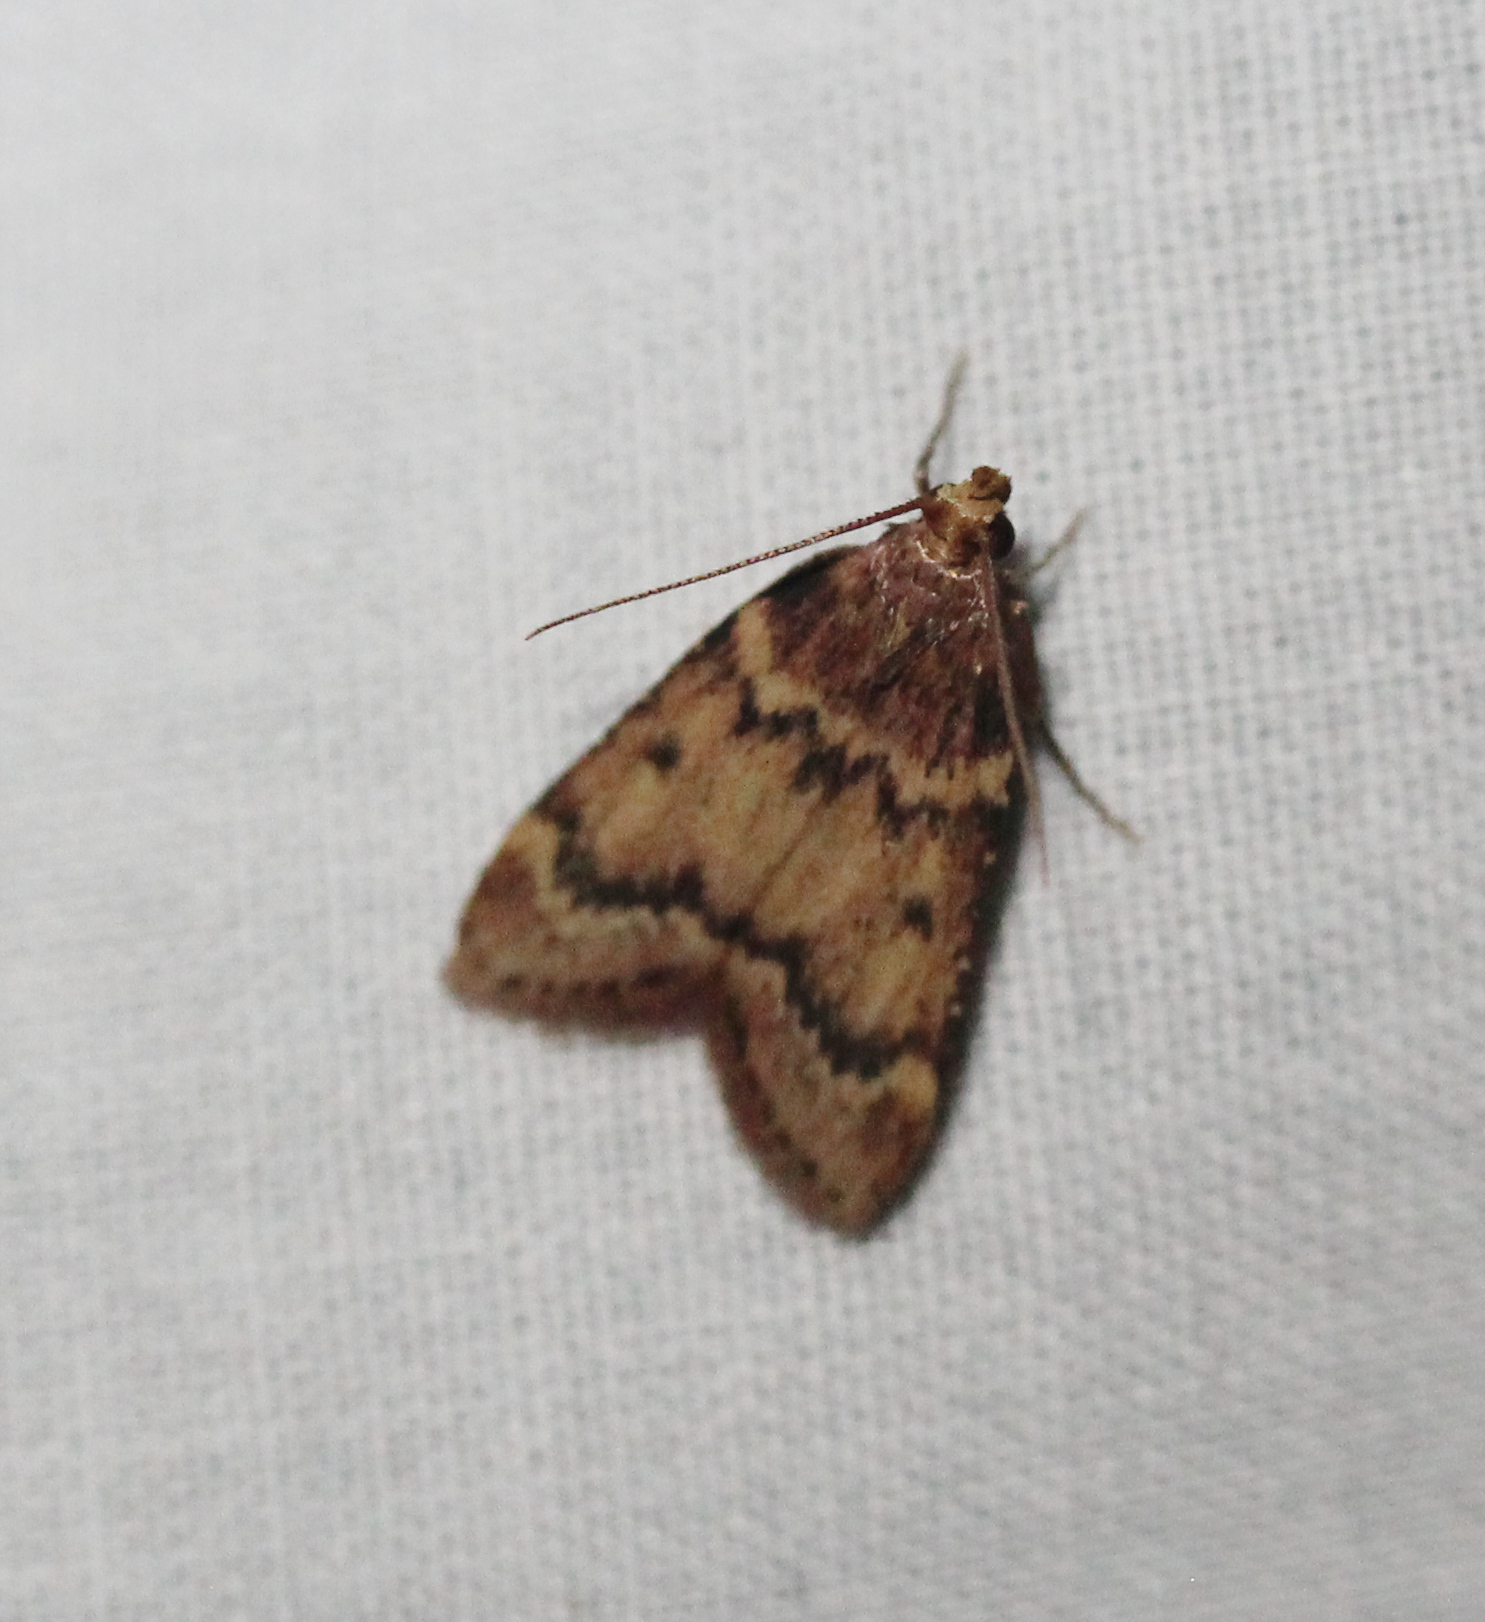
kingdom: Animalia
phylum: Arthropoda
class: Insecta
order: Lepidoptera
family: Pyralidae
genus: Aglossa
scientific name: Aglossa disciferalis
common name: Pink-masked pyralid moth
